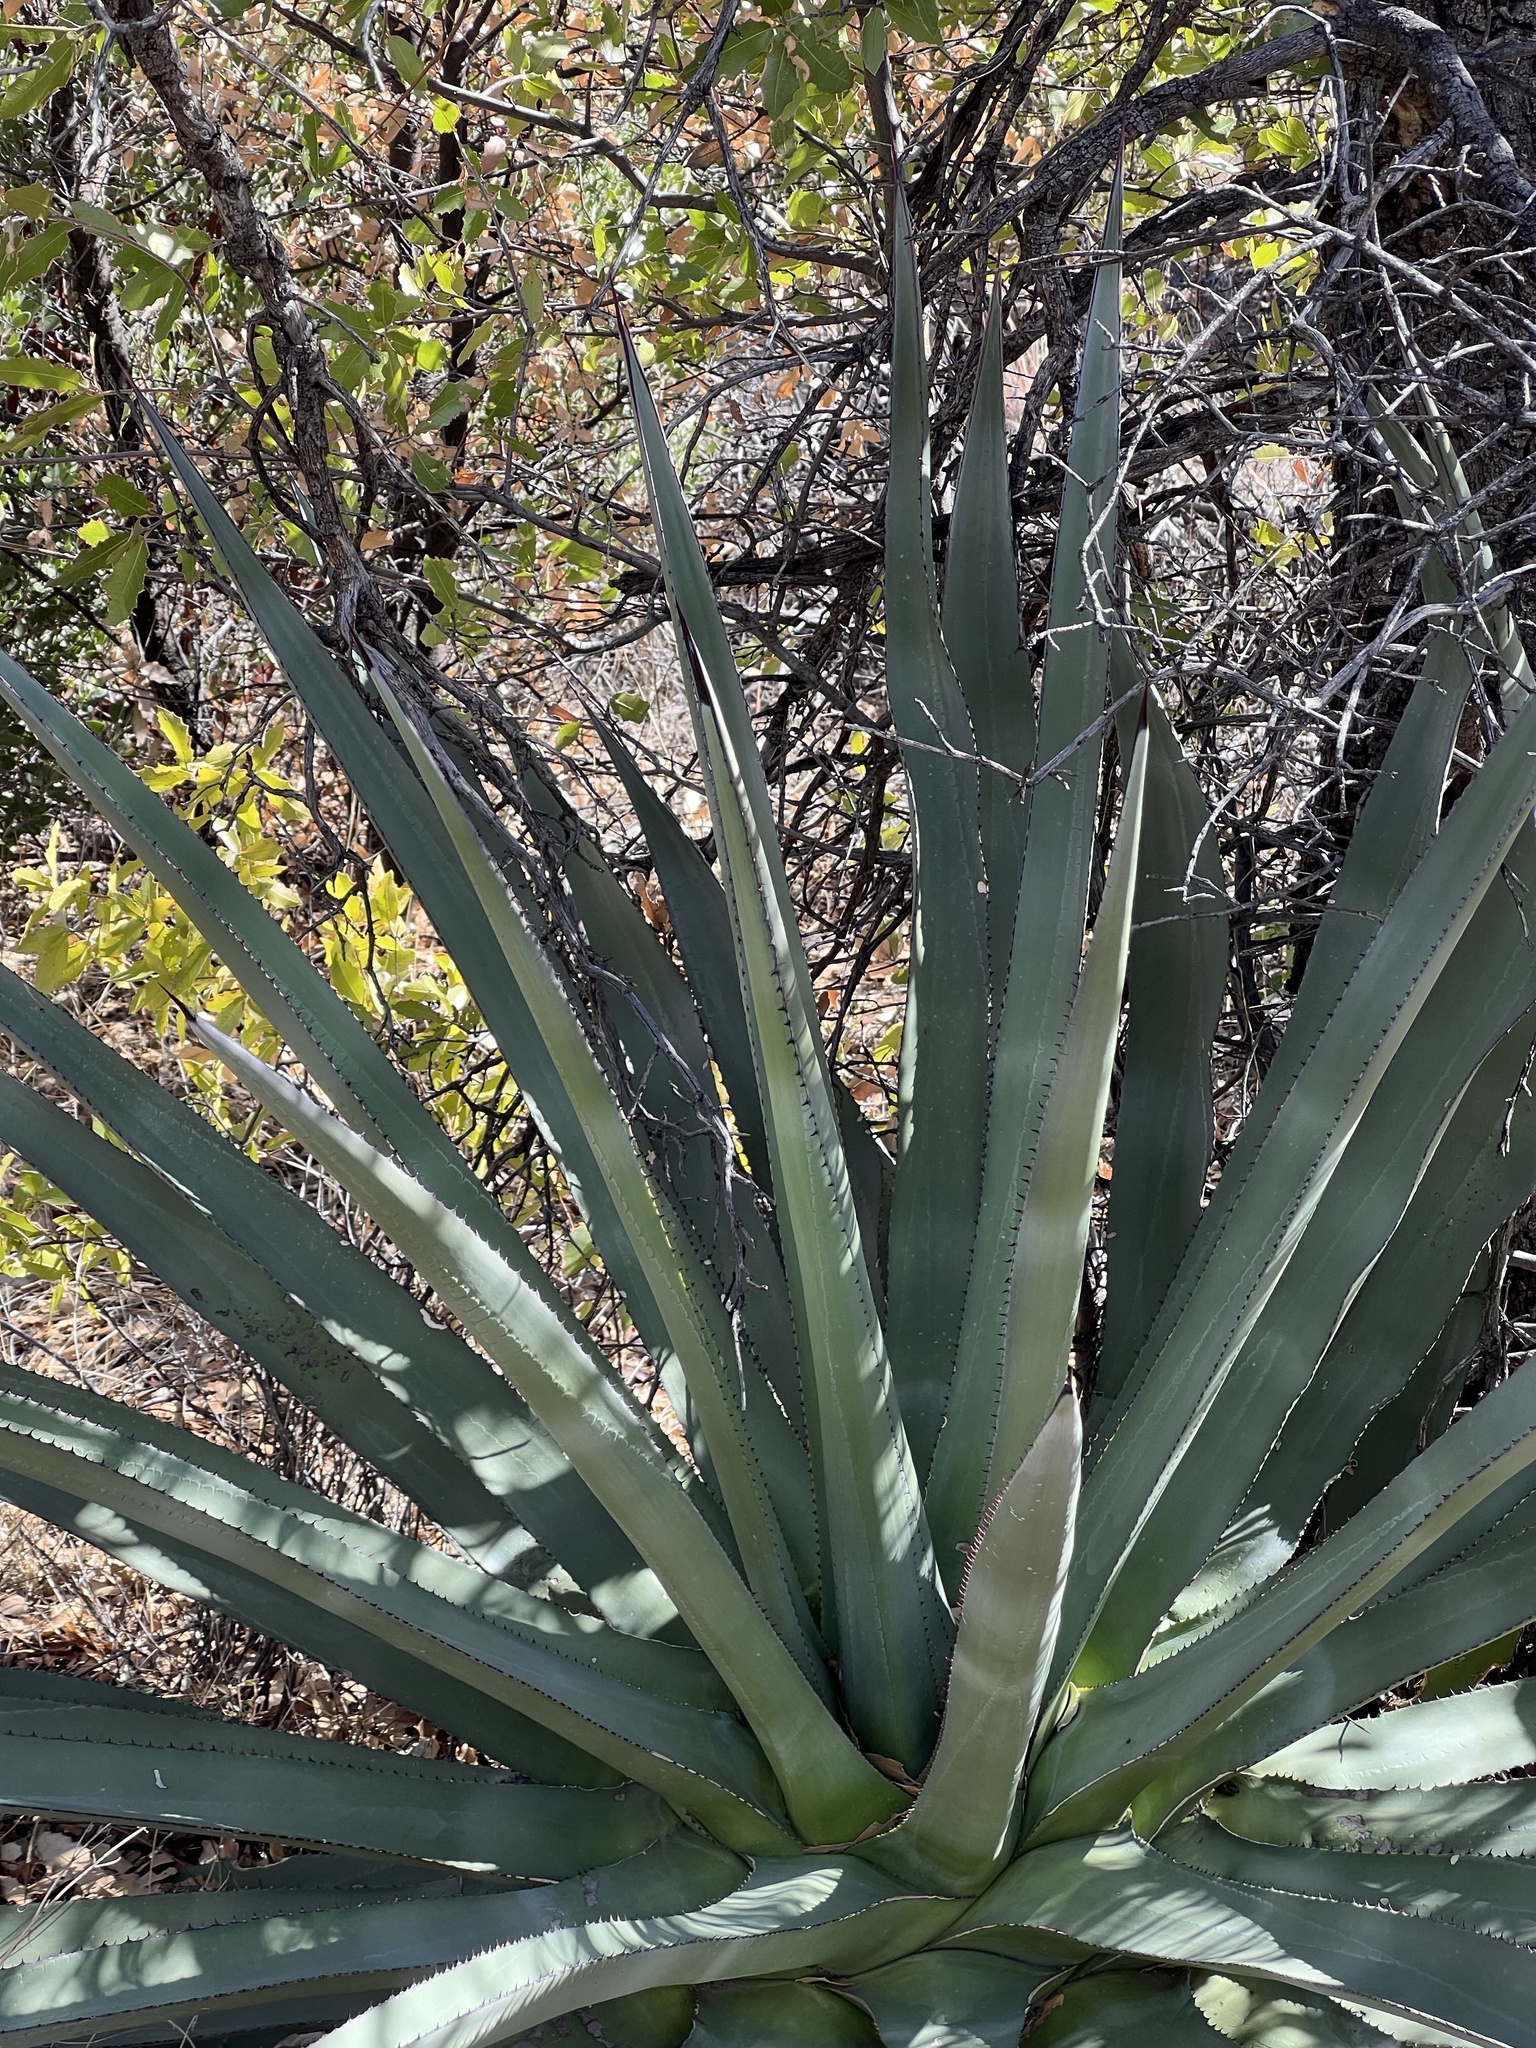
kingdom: Plantae
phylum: Tracheophyta
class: Liliopsida
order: Asparagales
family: Asparagaceae
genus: Agave
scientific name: Agave palmeri
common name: Palmer agave
